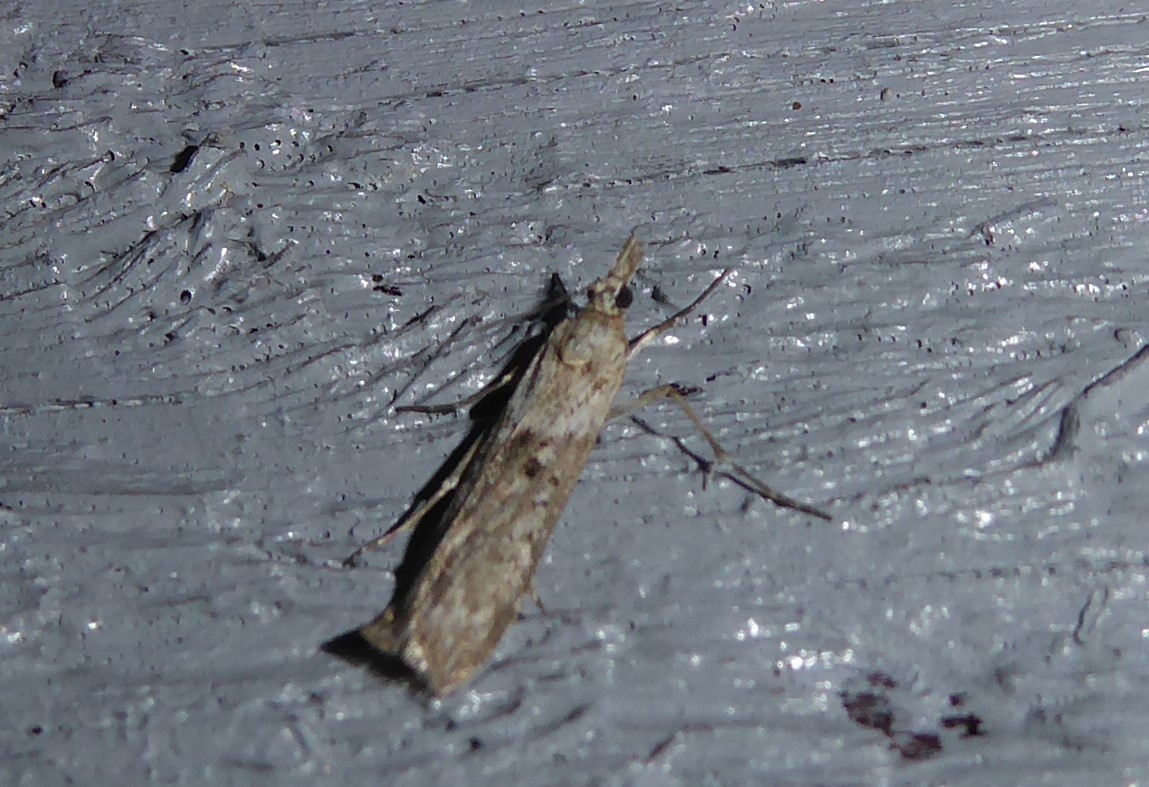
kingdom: Animalia
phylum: Arthropoda
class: Insecta
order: Lepidoptera
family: Crambidae
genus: Eudonia
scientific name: Eudonia leptalea
